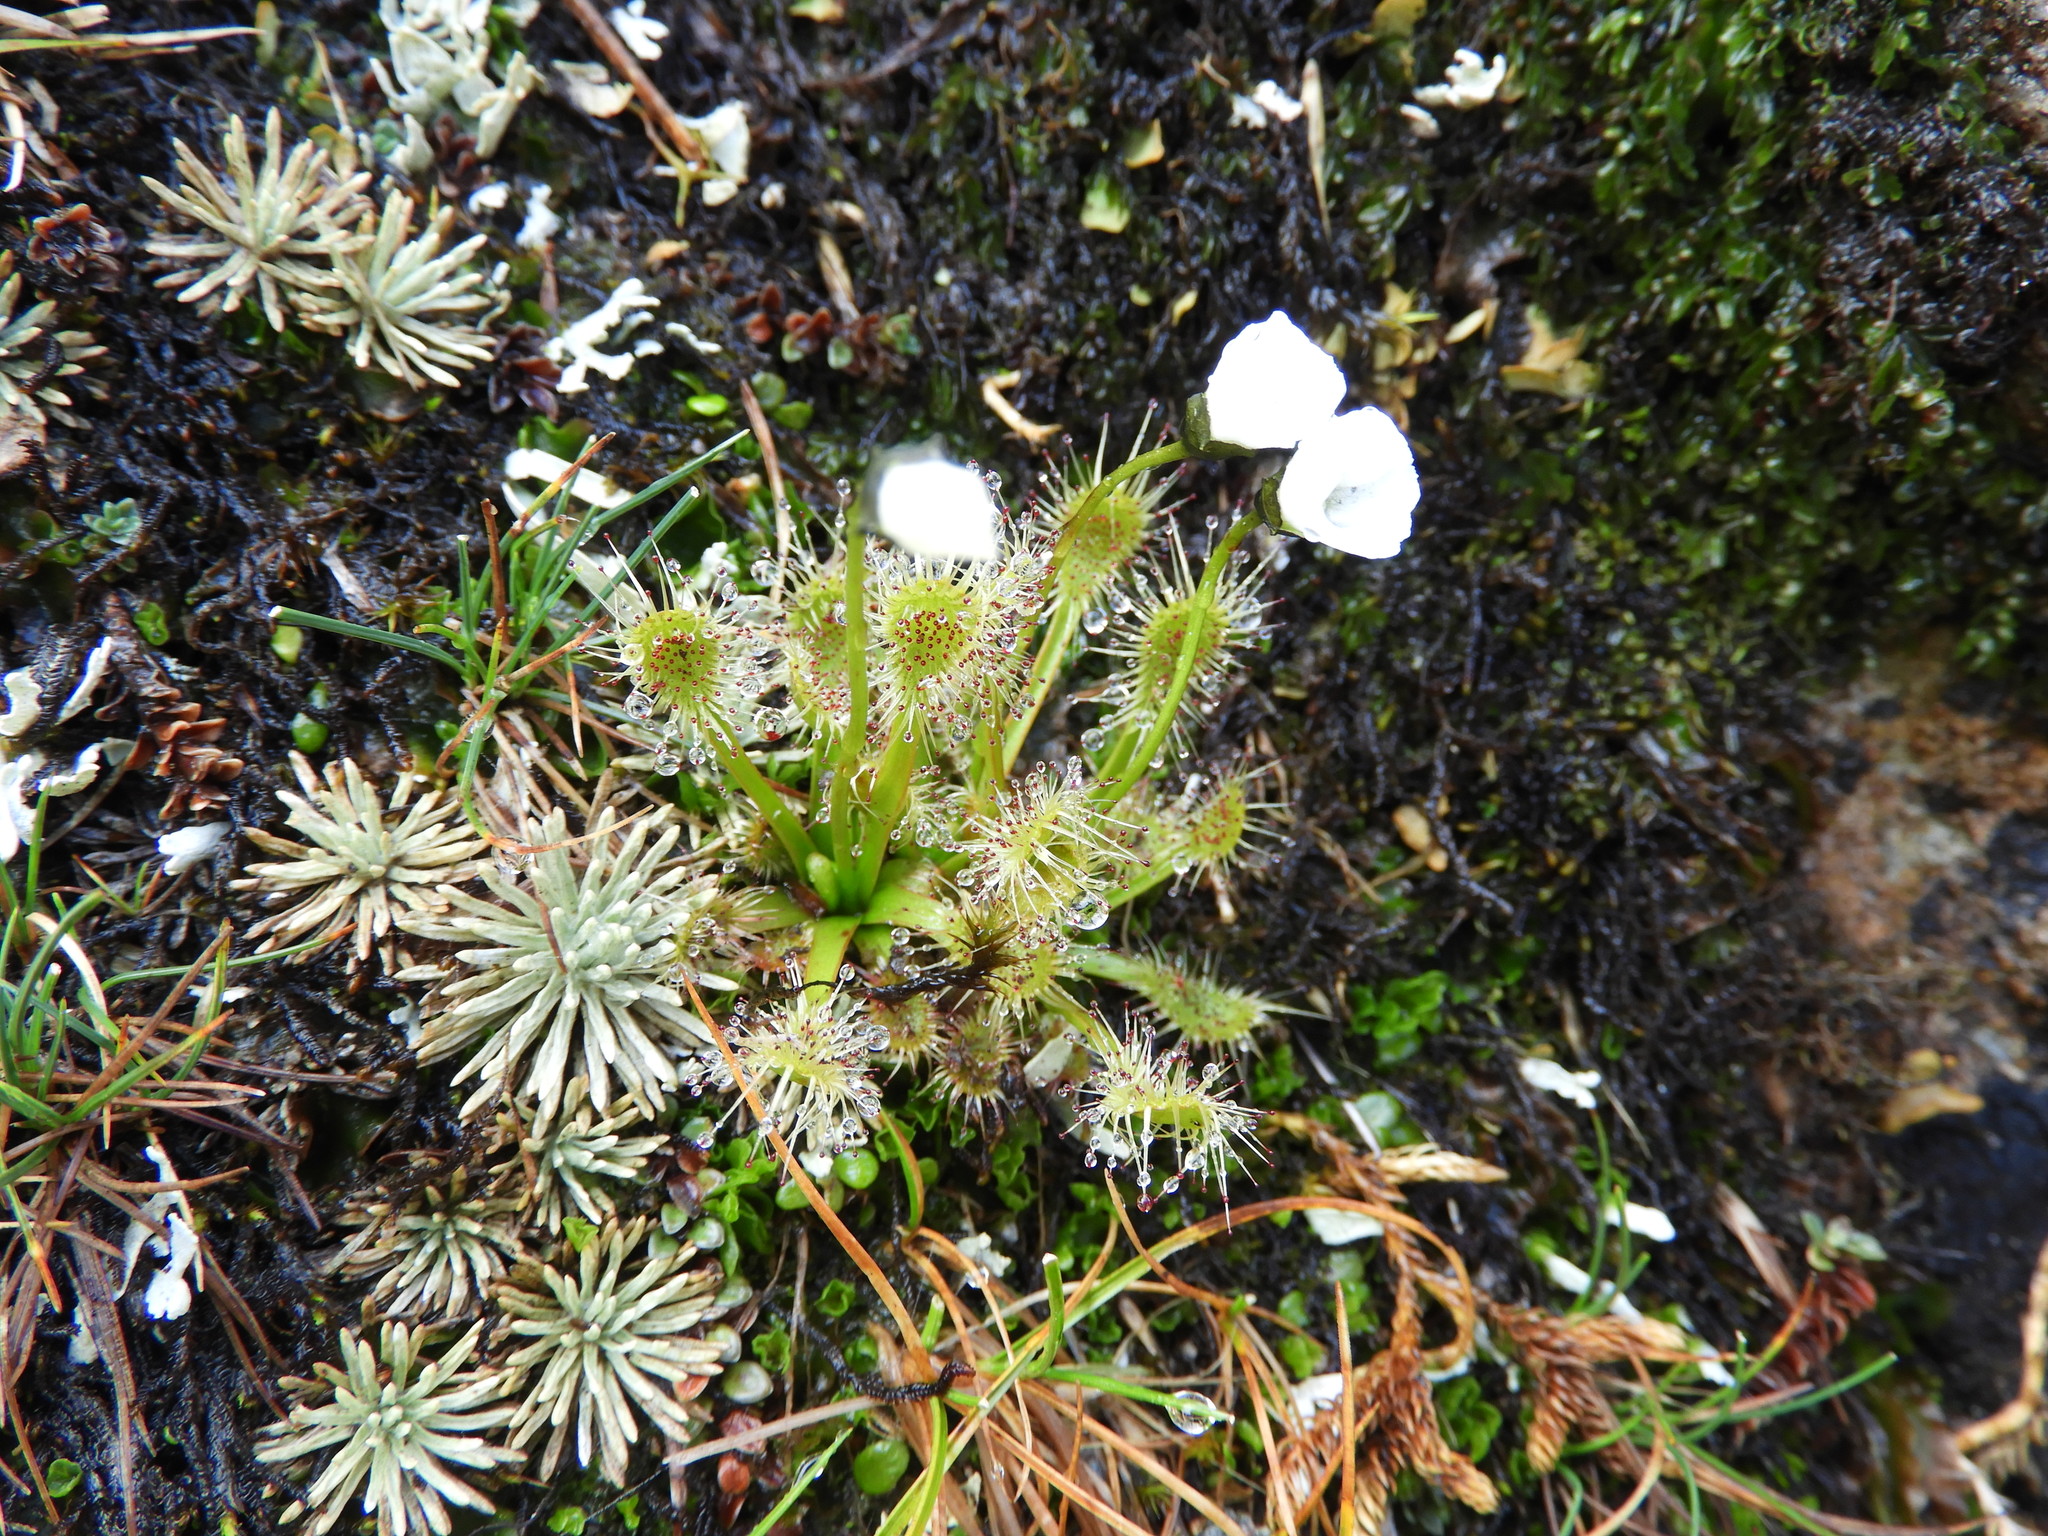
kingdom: Plantae
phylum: Tracheophyta
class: Magnoliopsida
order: Caryophyllales
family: Droseraceae
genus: Drosera
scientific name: Drosera stenopetala
